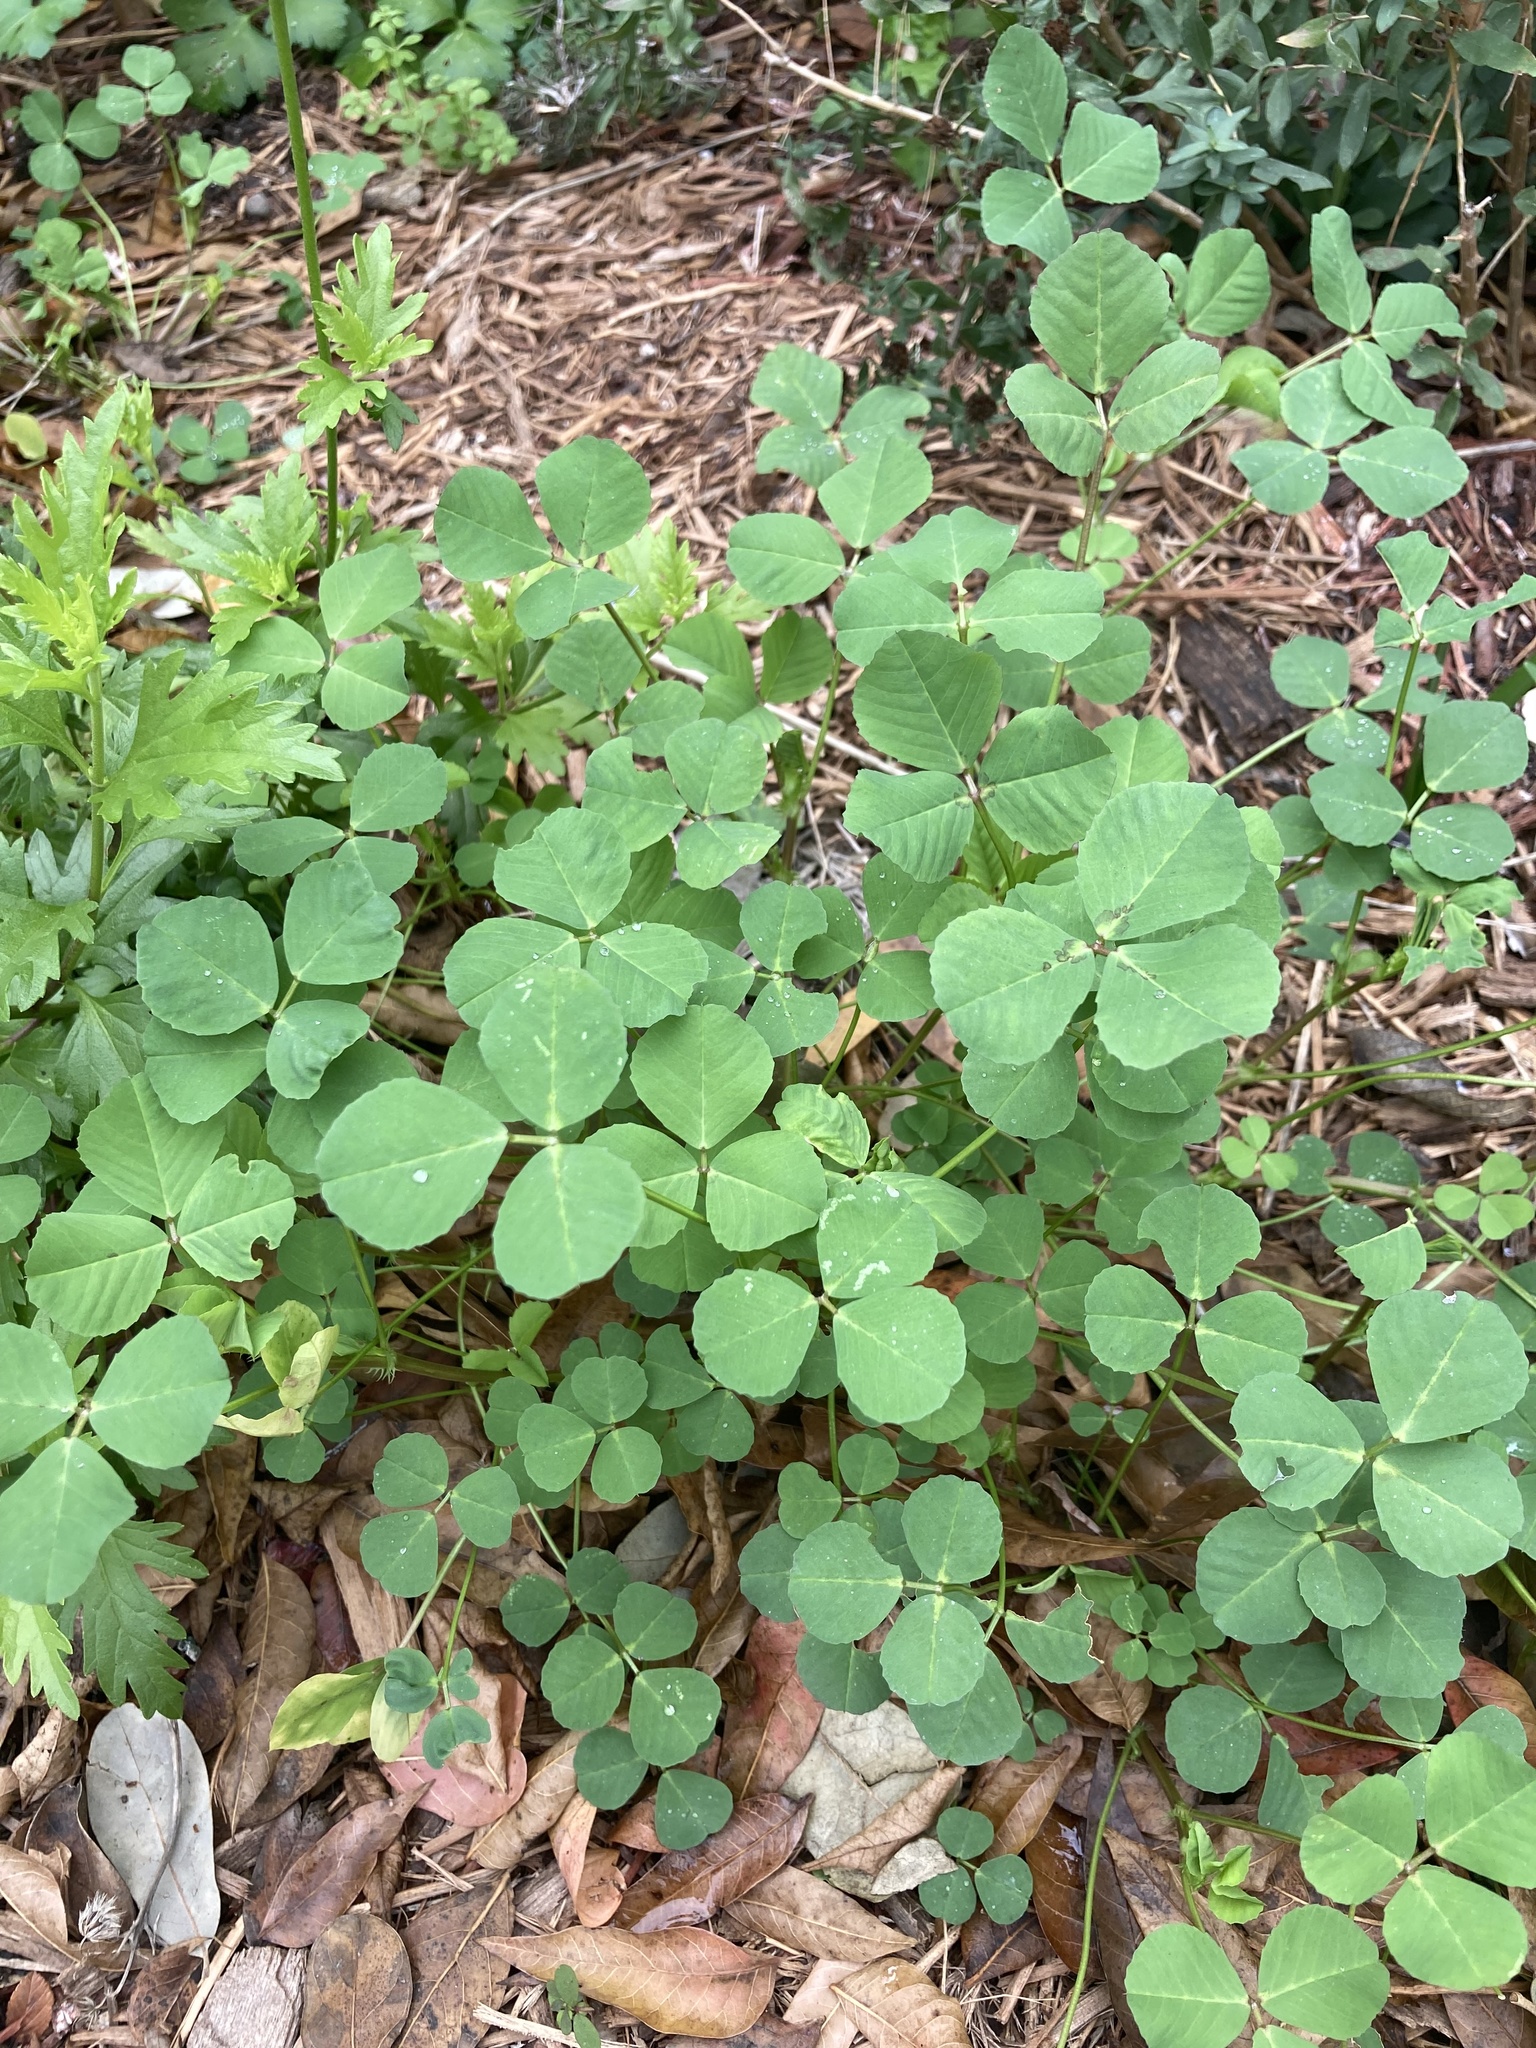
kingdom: Plantae
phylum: Tracheophyta
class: Magnoliopsida
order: Fabales
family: Fabaceae
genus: Medicago
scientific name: Medicago polymorpha
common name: Burclover
